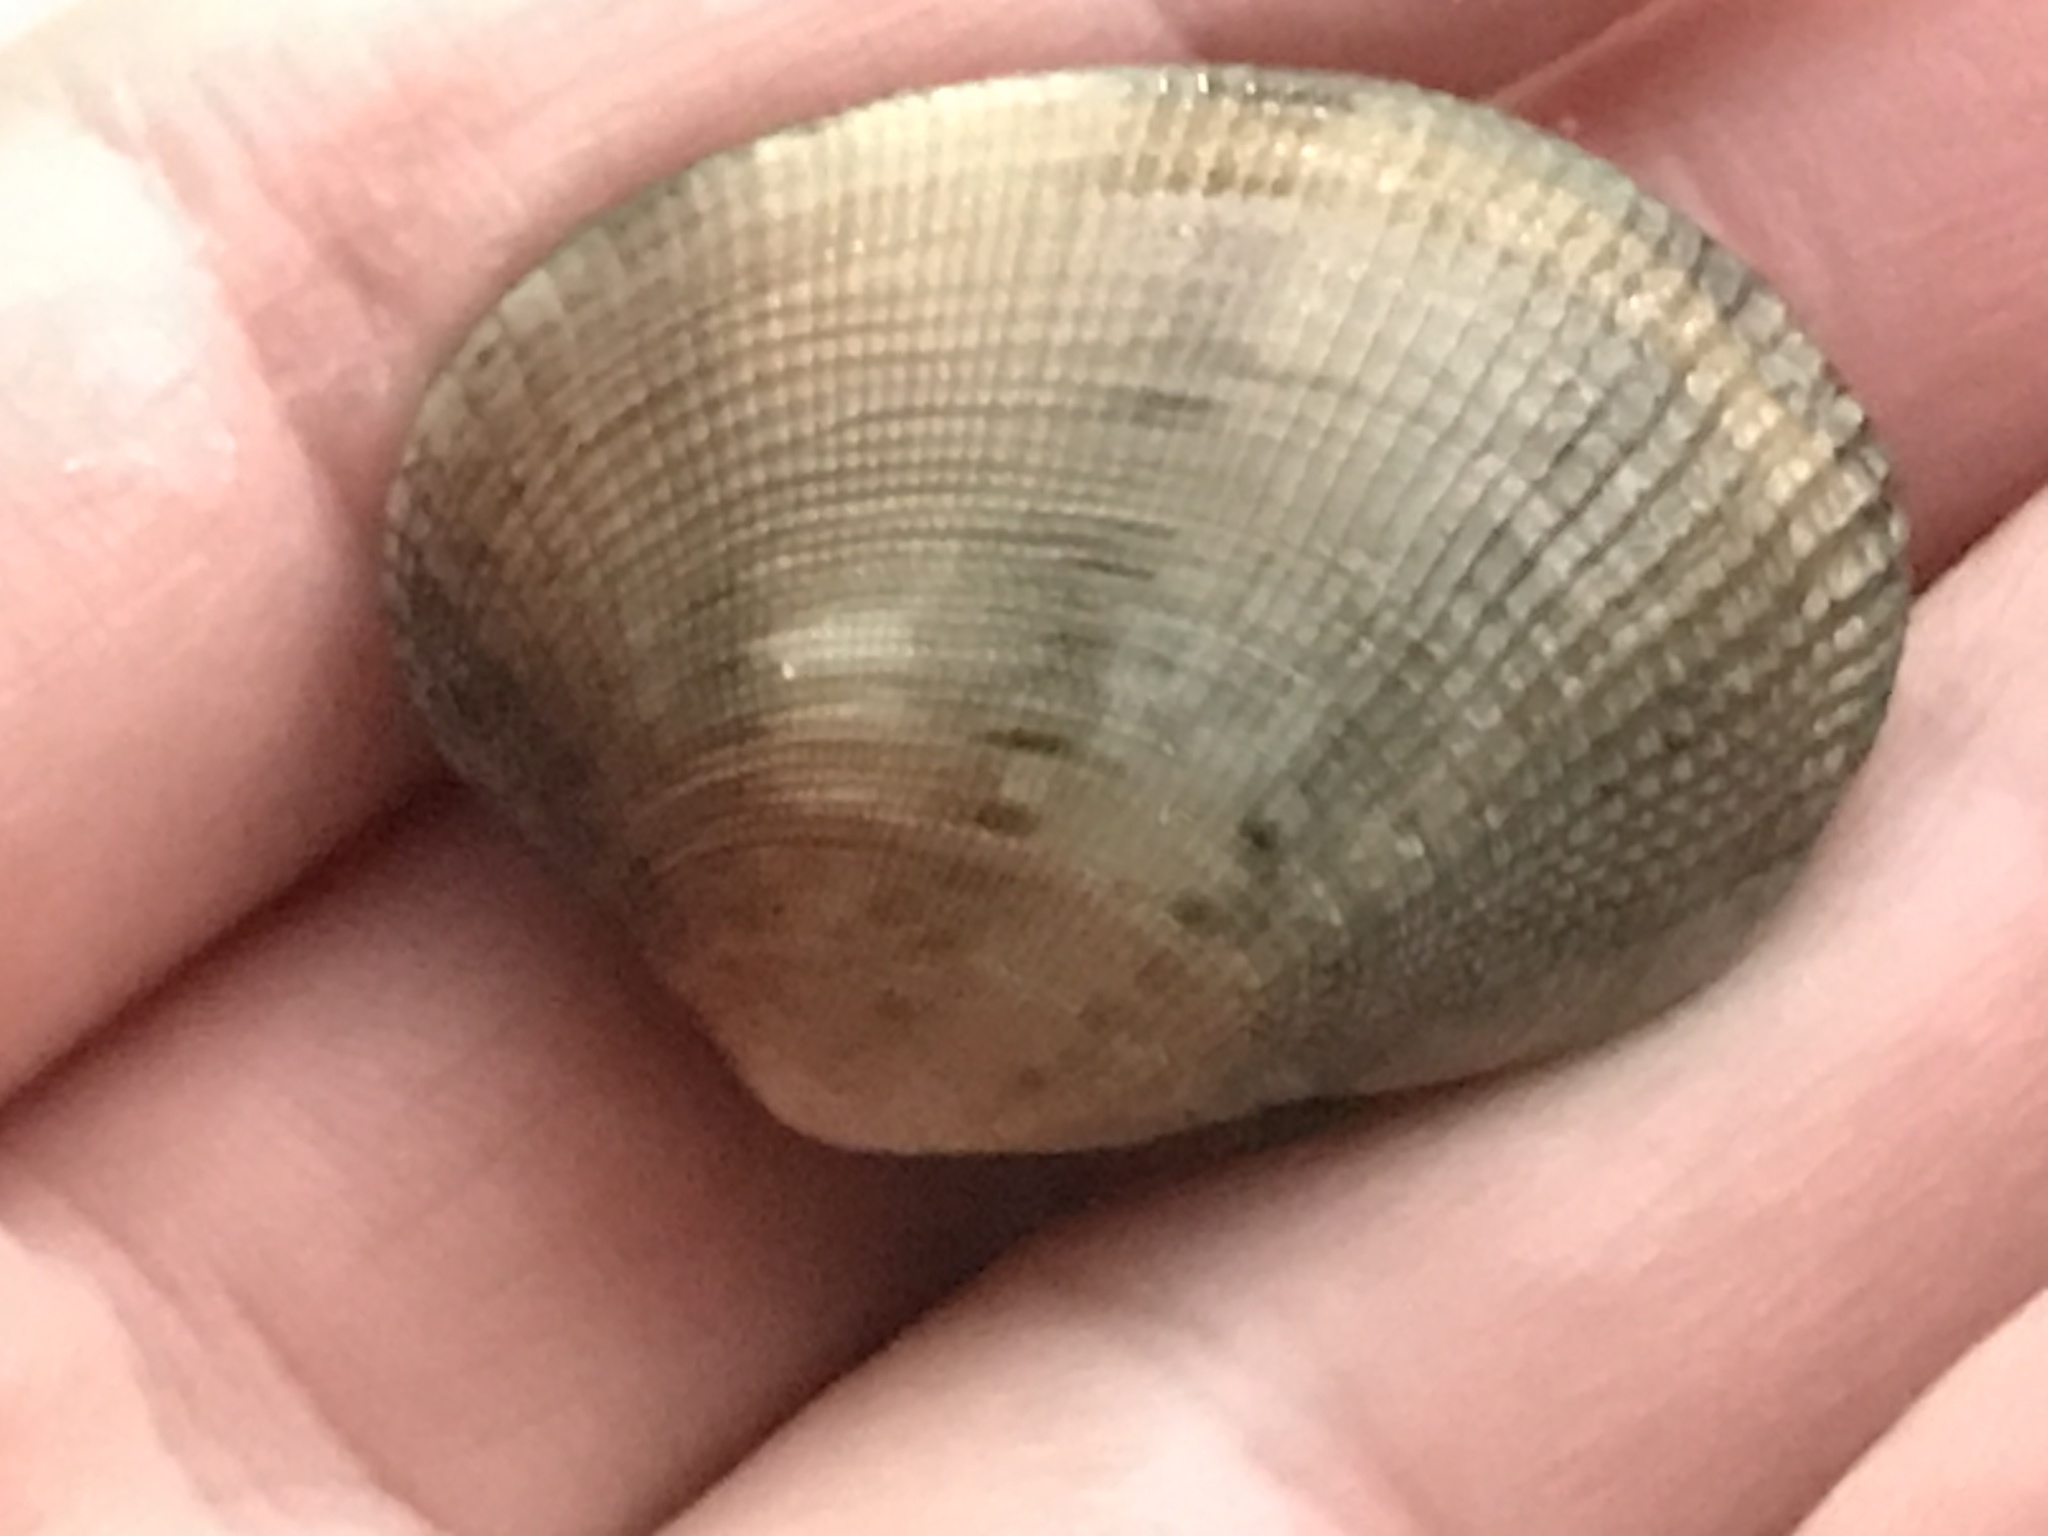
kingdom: Animalia
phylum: Mollusca
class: Bivalvia
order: Venerida
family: Veneridae
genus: Ruditapes
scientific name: Ruditapes philippinarum
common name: Manila clam
